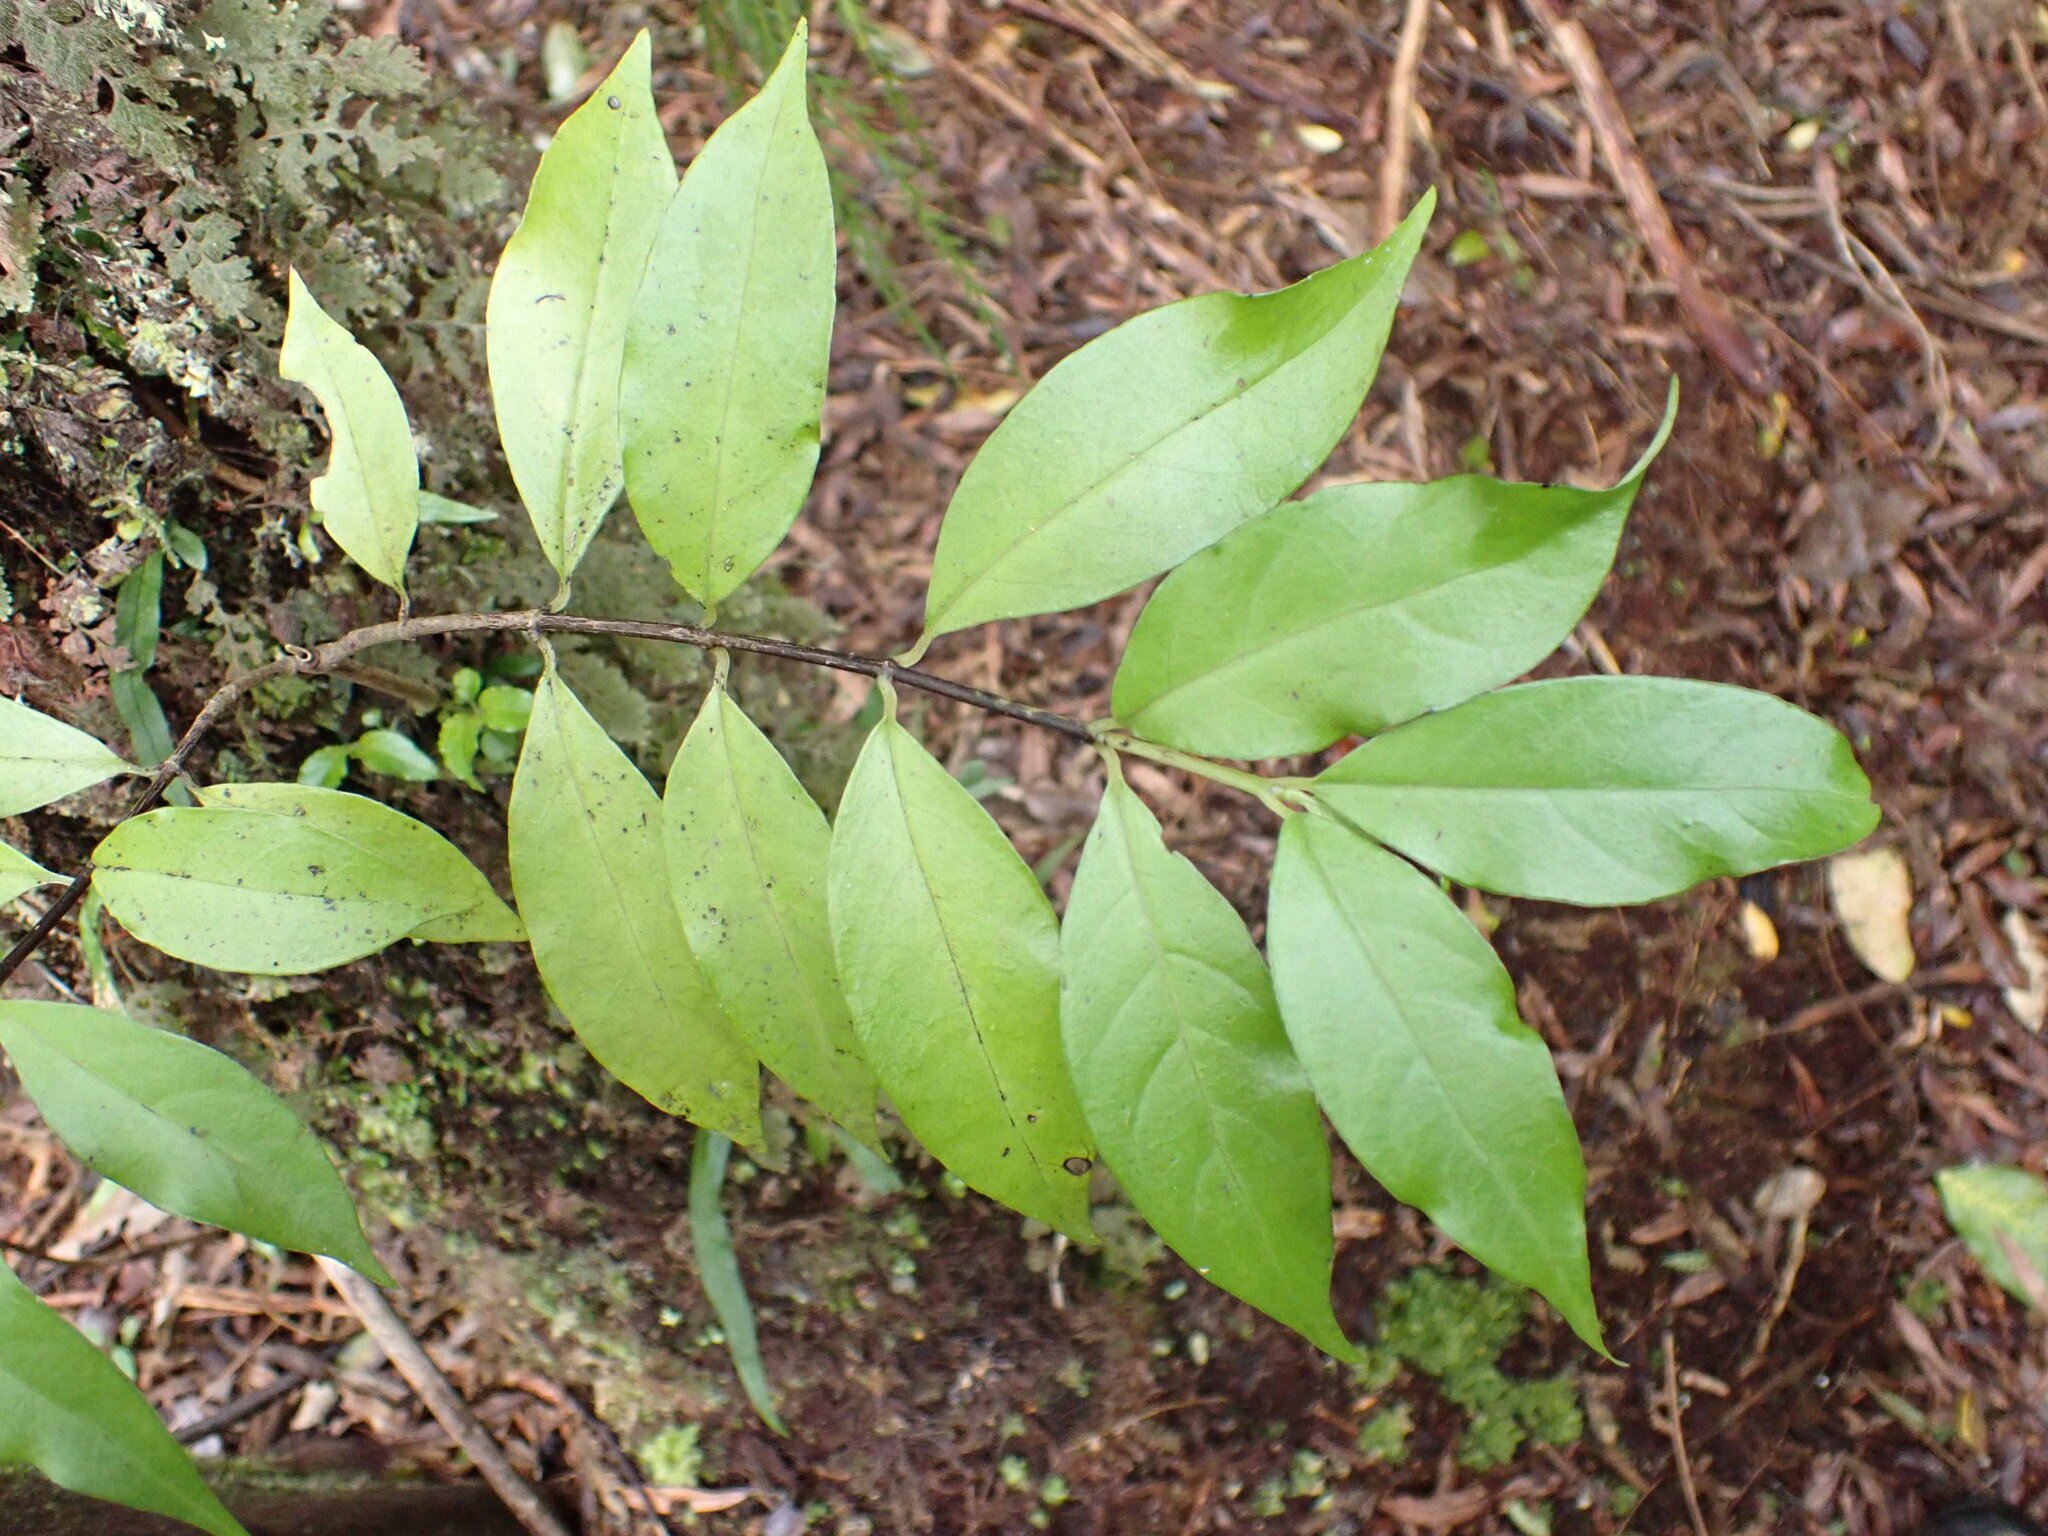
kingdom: Plantae
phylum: Tracheophyta
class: Magnoliopsida
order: Gentianales
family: Loganiaceae
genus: Geniostoma
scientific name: Geniostoma ligustrifolium
